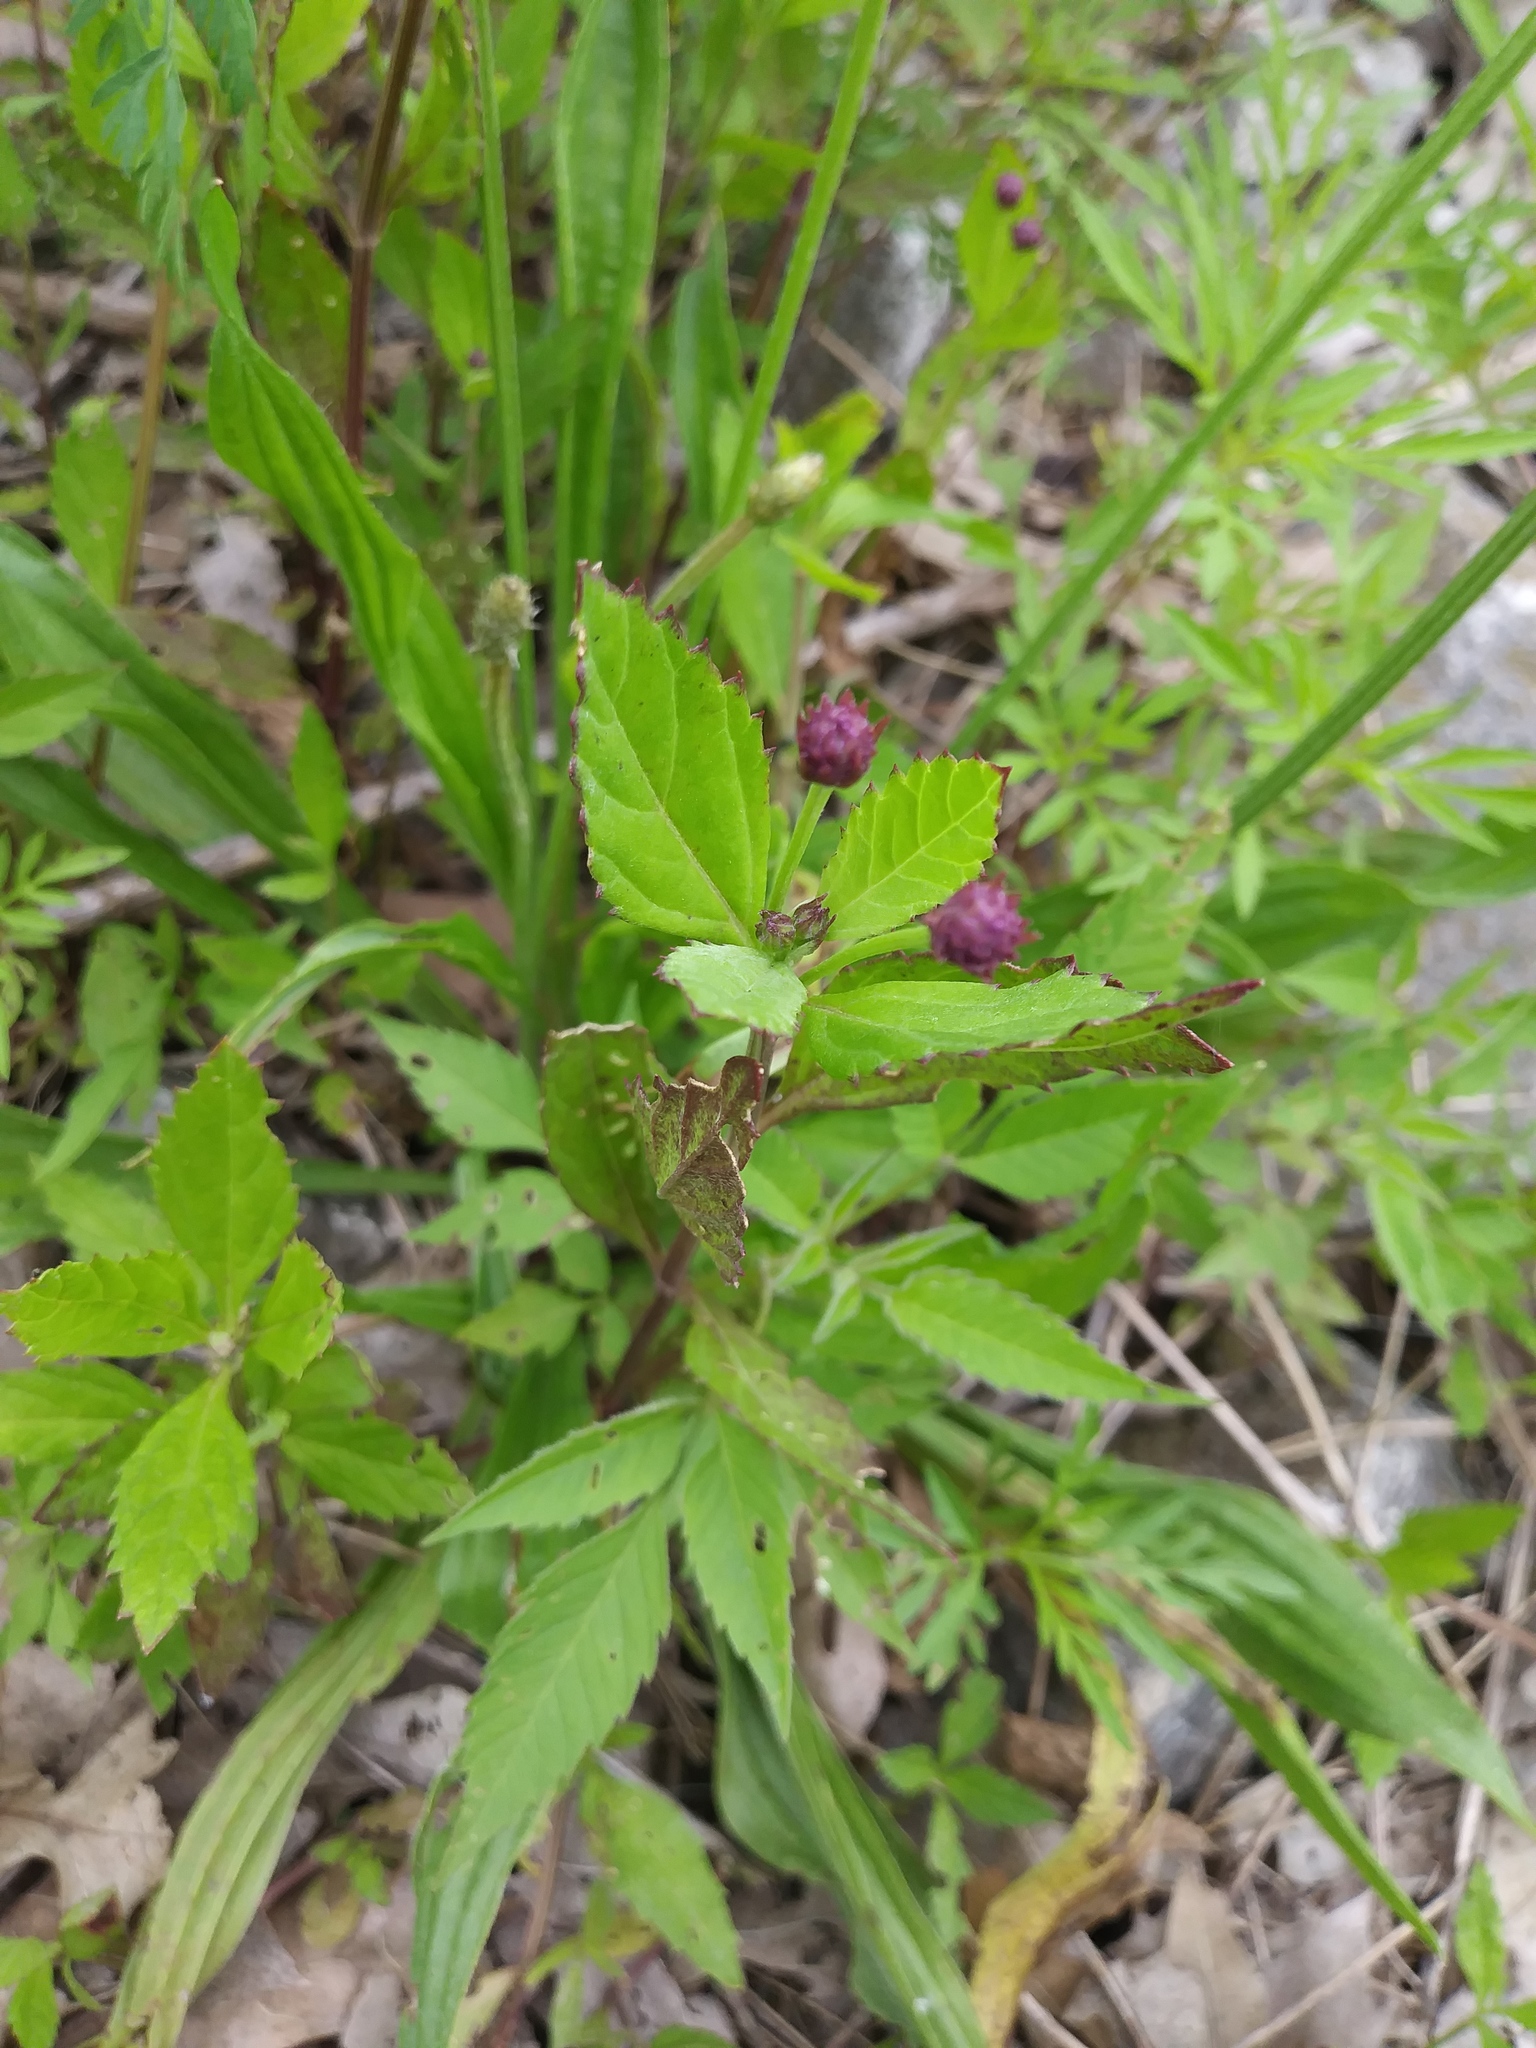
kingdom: Plantae
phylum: Tracheophyta
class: Magnoliopsida
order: Lamiales
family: Verbenaceae
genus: Phyla
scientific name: Phyla lanceolata
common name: Northern fogfruit
